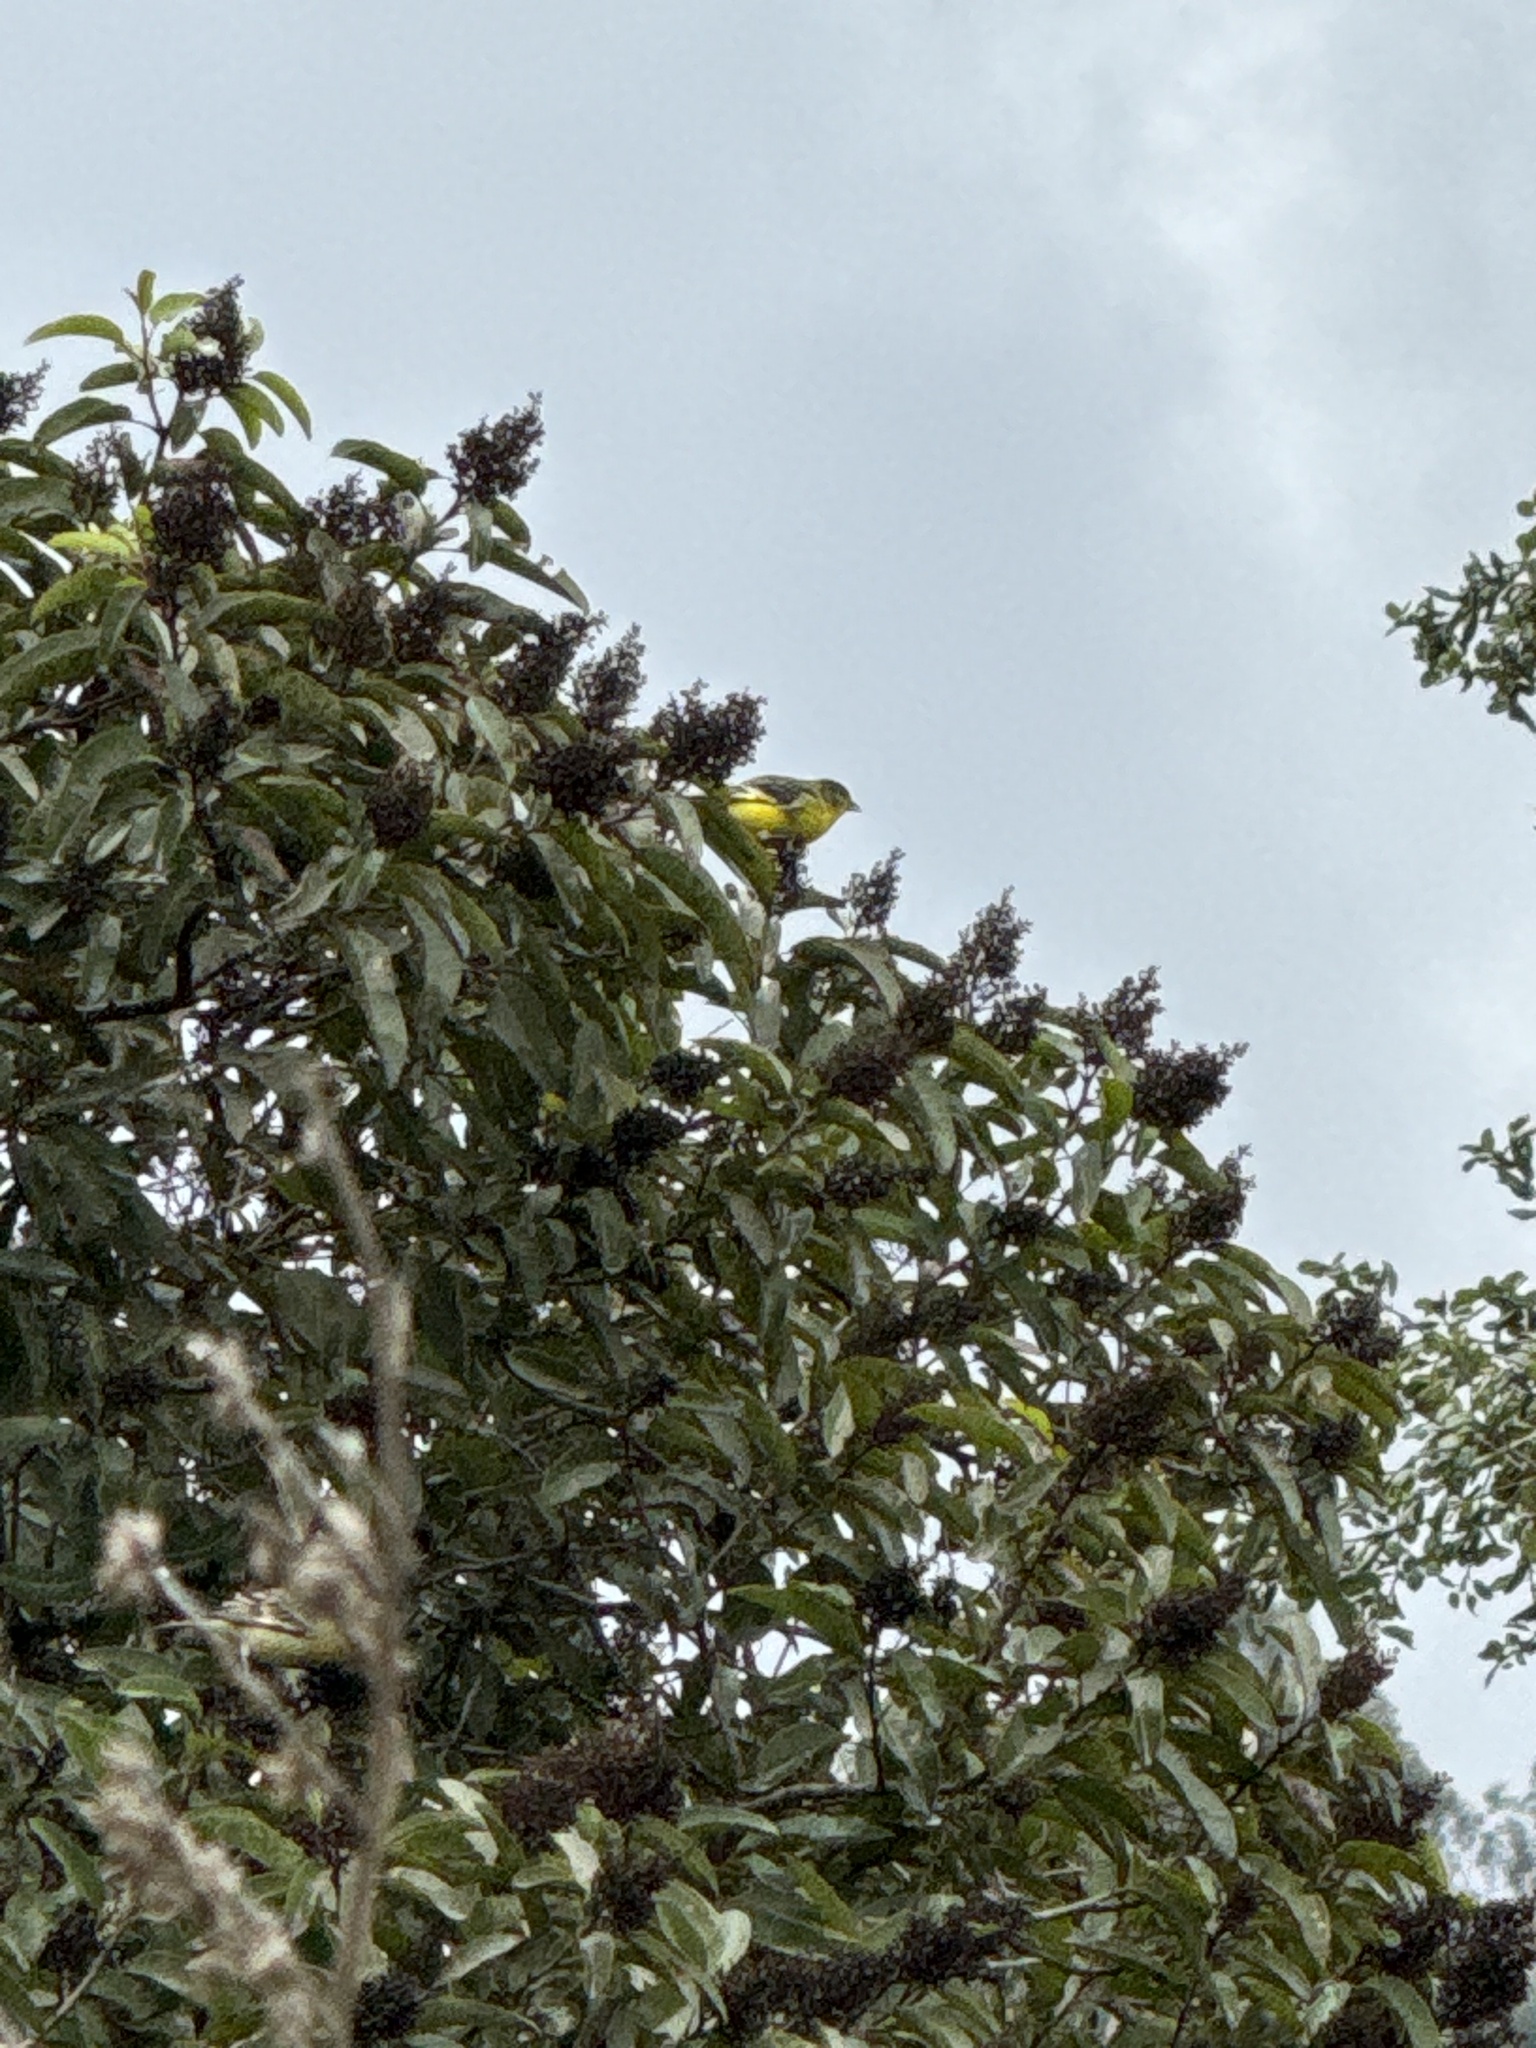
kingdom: Animalia
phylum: Chordata
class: Aves
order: Passeriformes
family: Fringillidae
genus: Spinus
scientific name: Spinus psaltria
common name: Lesser goldfinch
